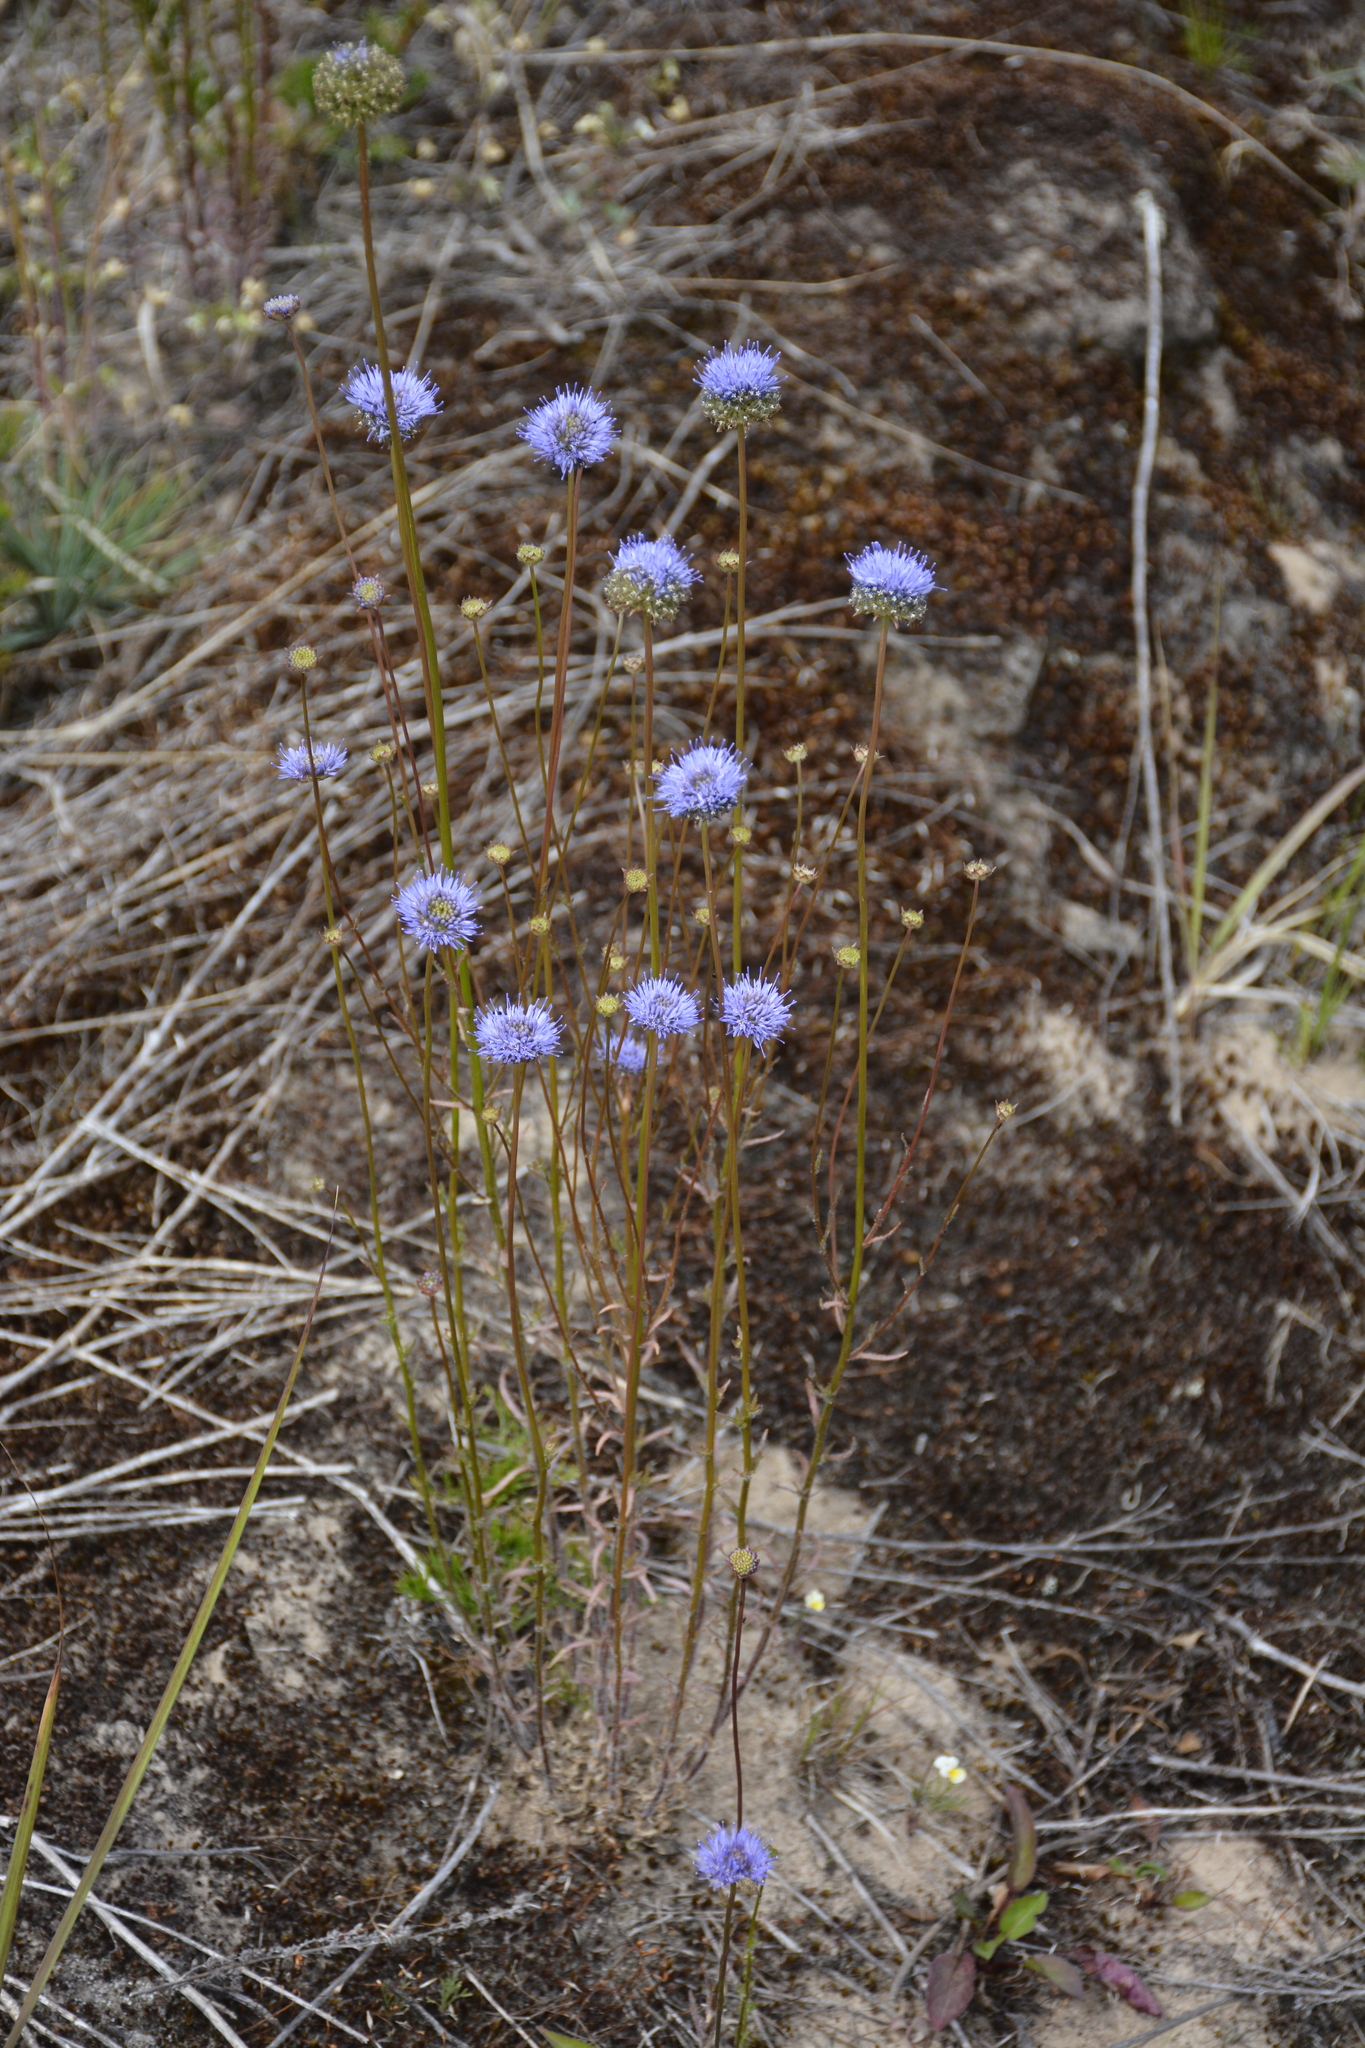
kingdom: Plantae
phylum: Tracheophyta
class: Magnoliopsida
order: Asterales
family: Campanulaceae
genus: Jasione
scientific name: Jasione montana
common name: Sheep's-bit
